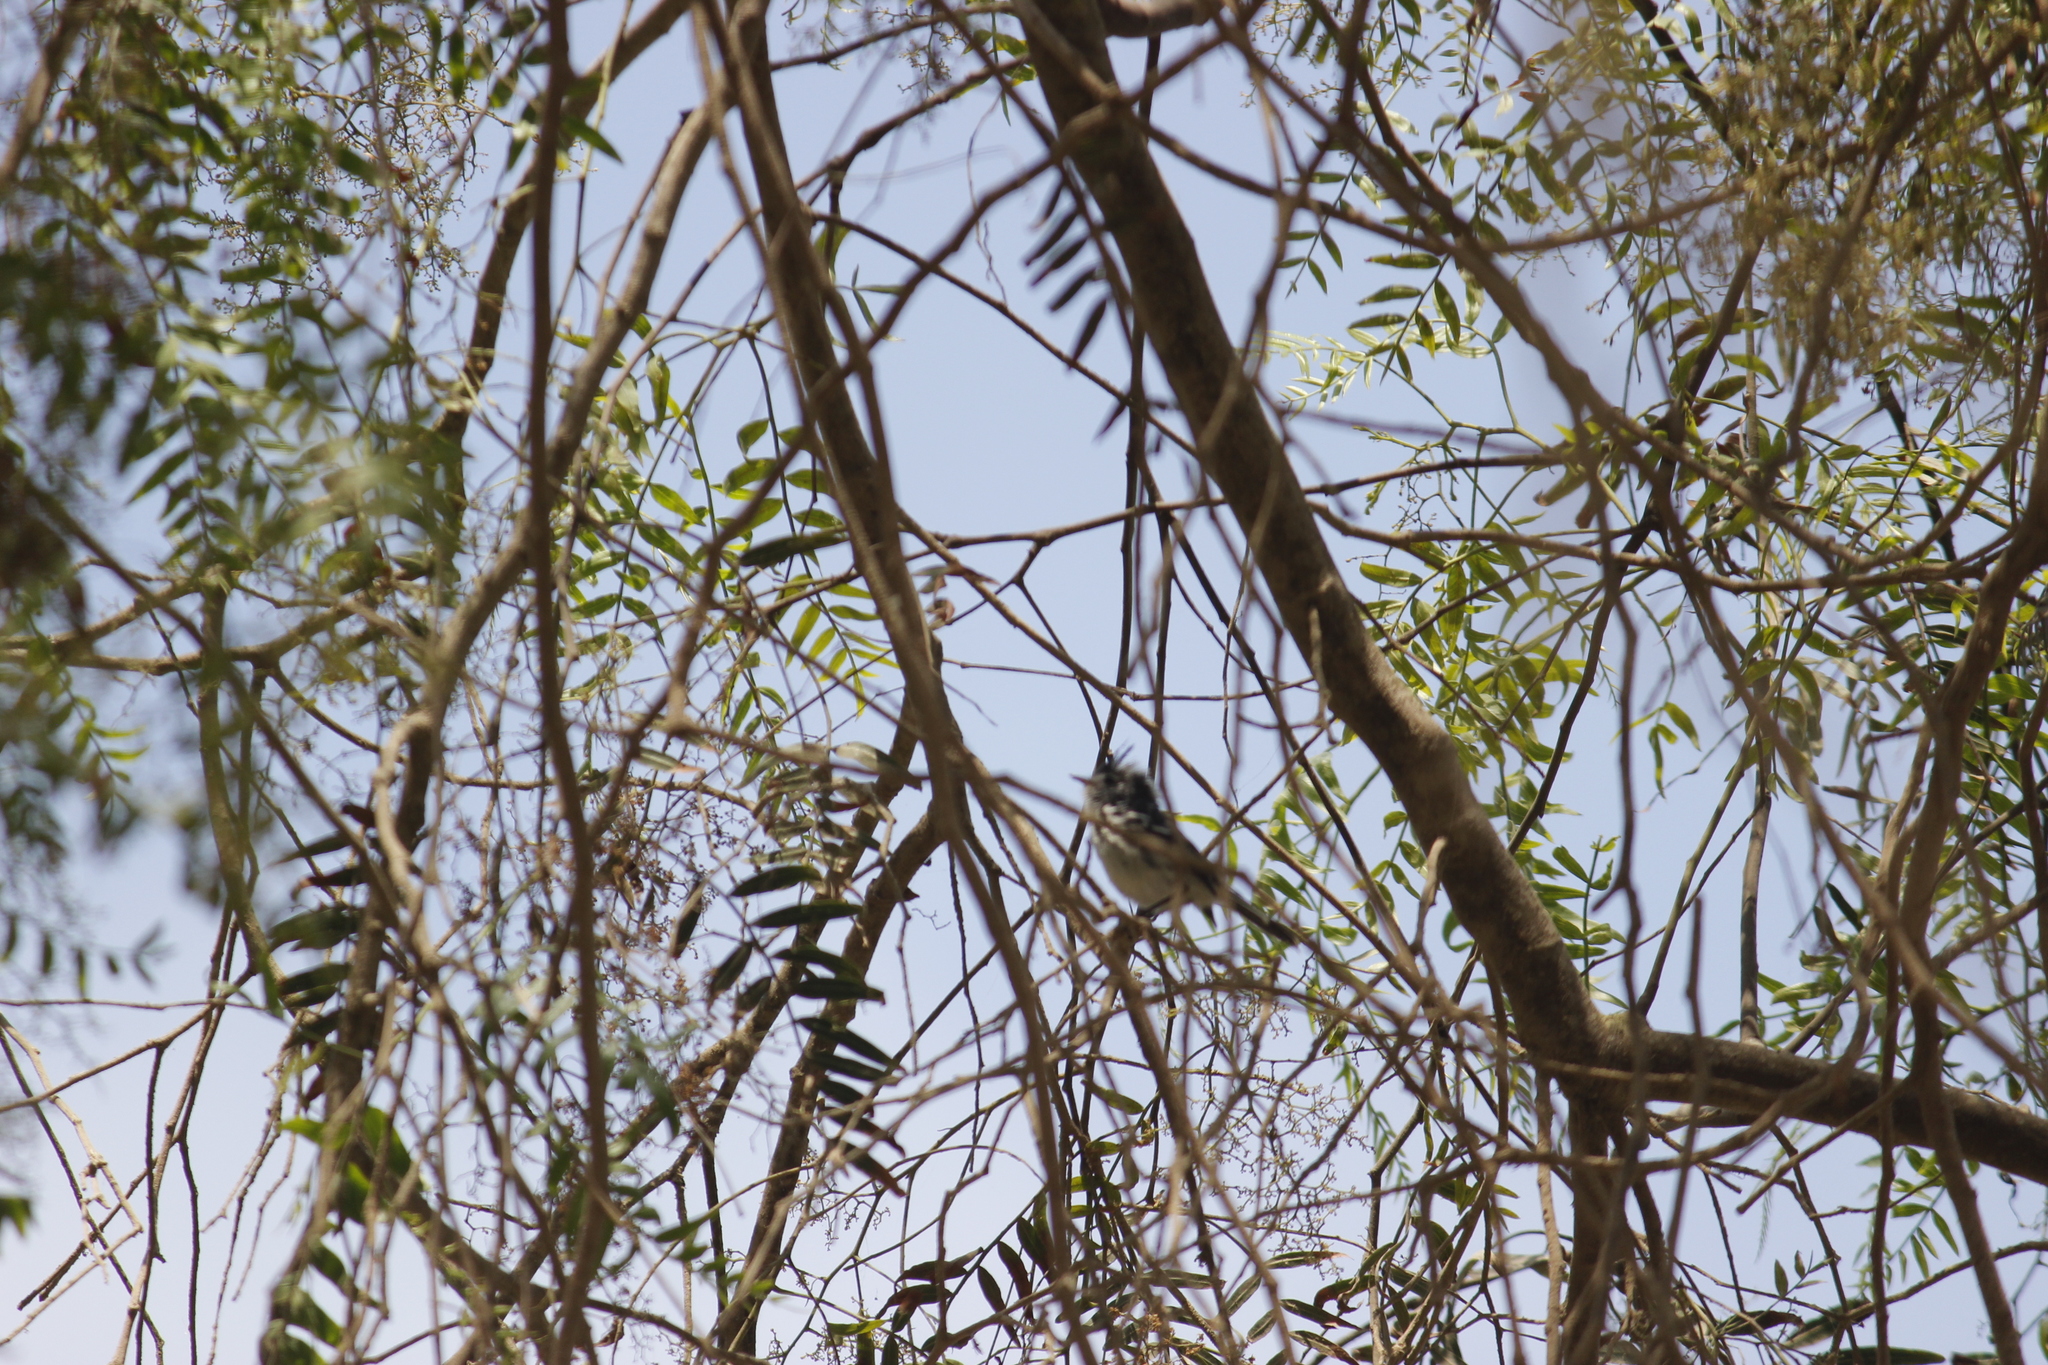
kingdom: Animalia
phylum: Chordata
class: Aves
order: Passeriformes
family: Tyrannidae
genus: Anairetes
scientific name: Anairetes reguloides
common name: Pied-crested tit-tyrant
